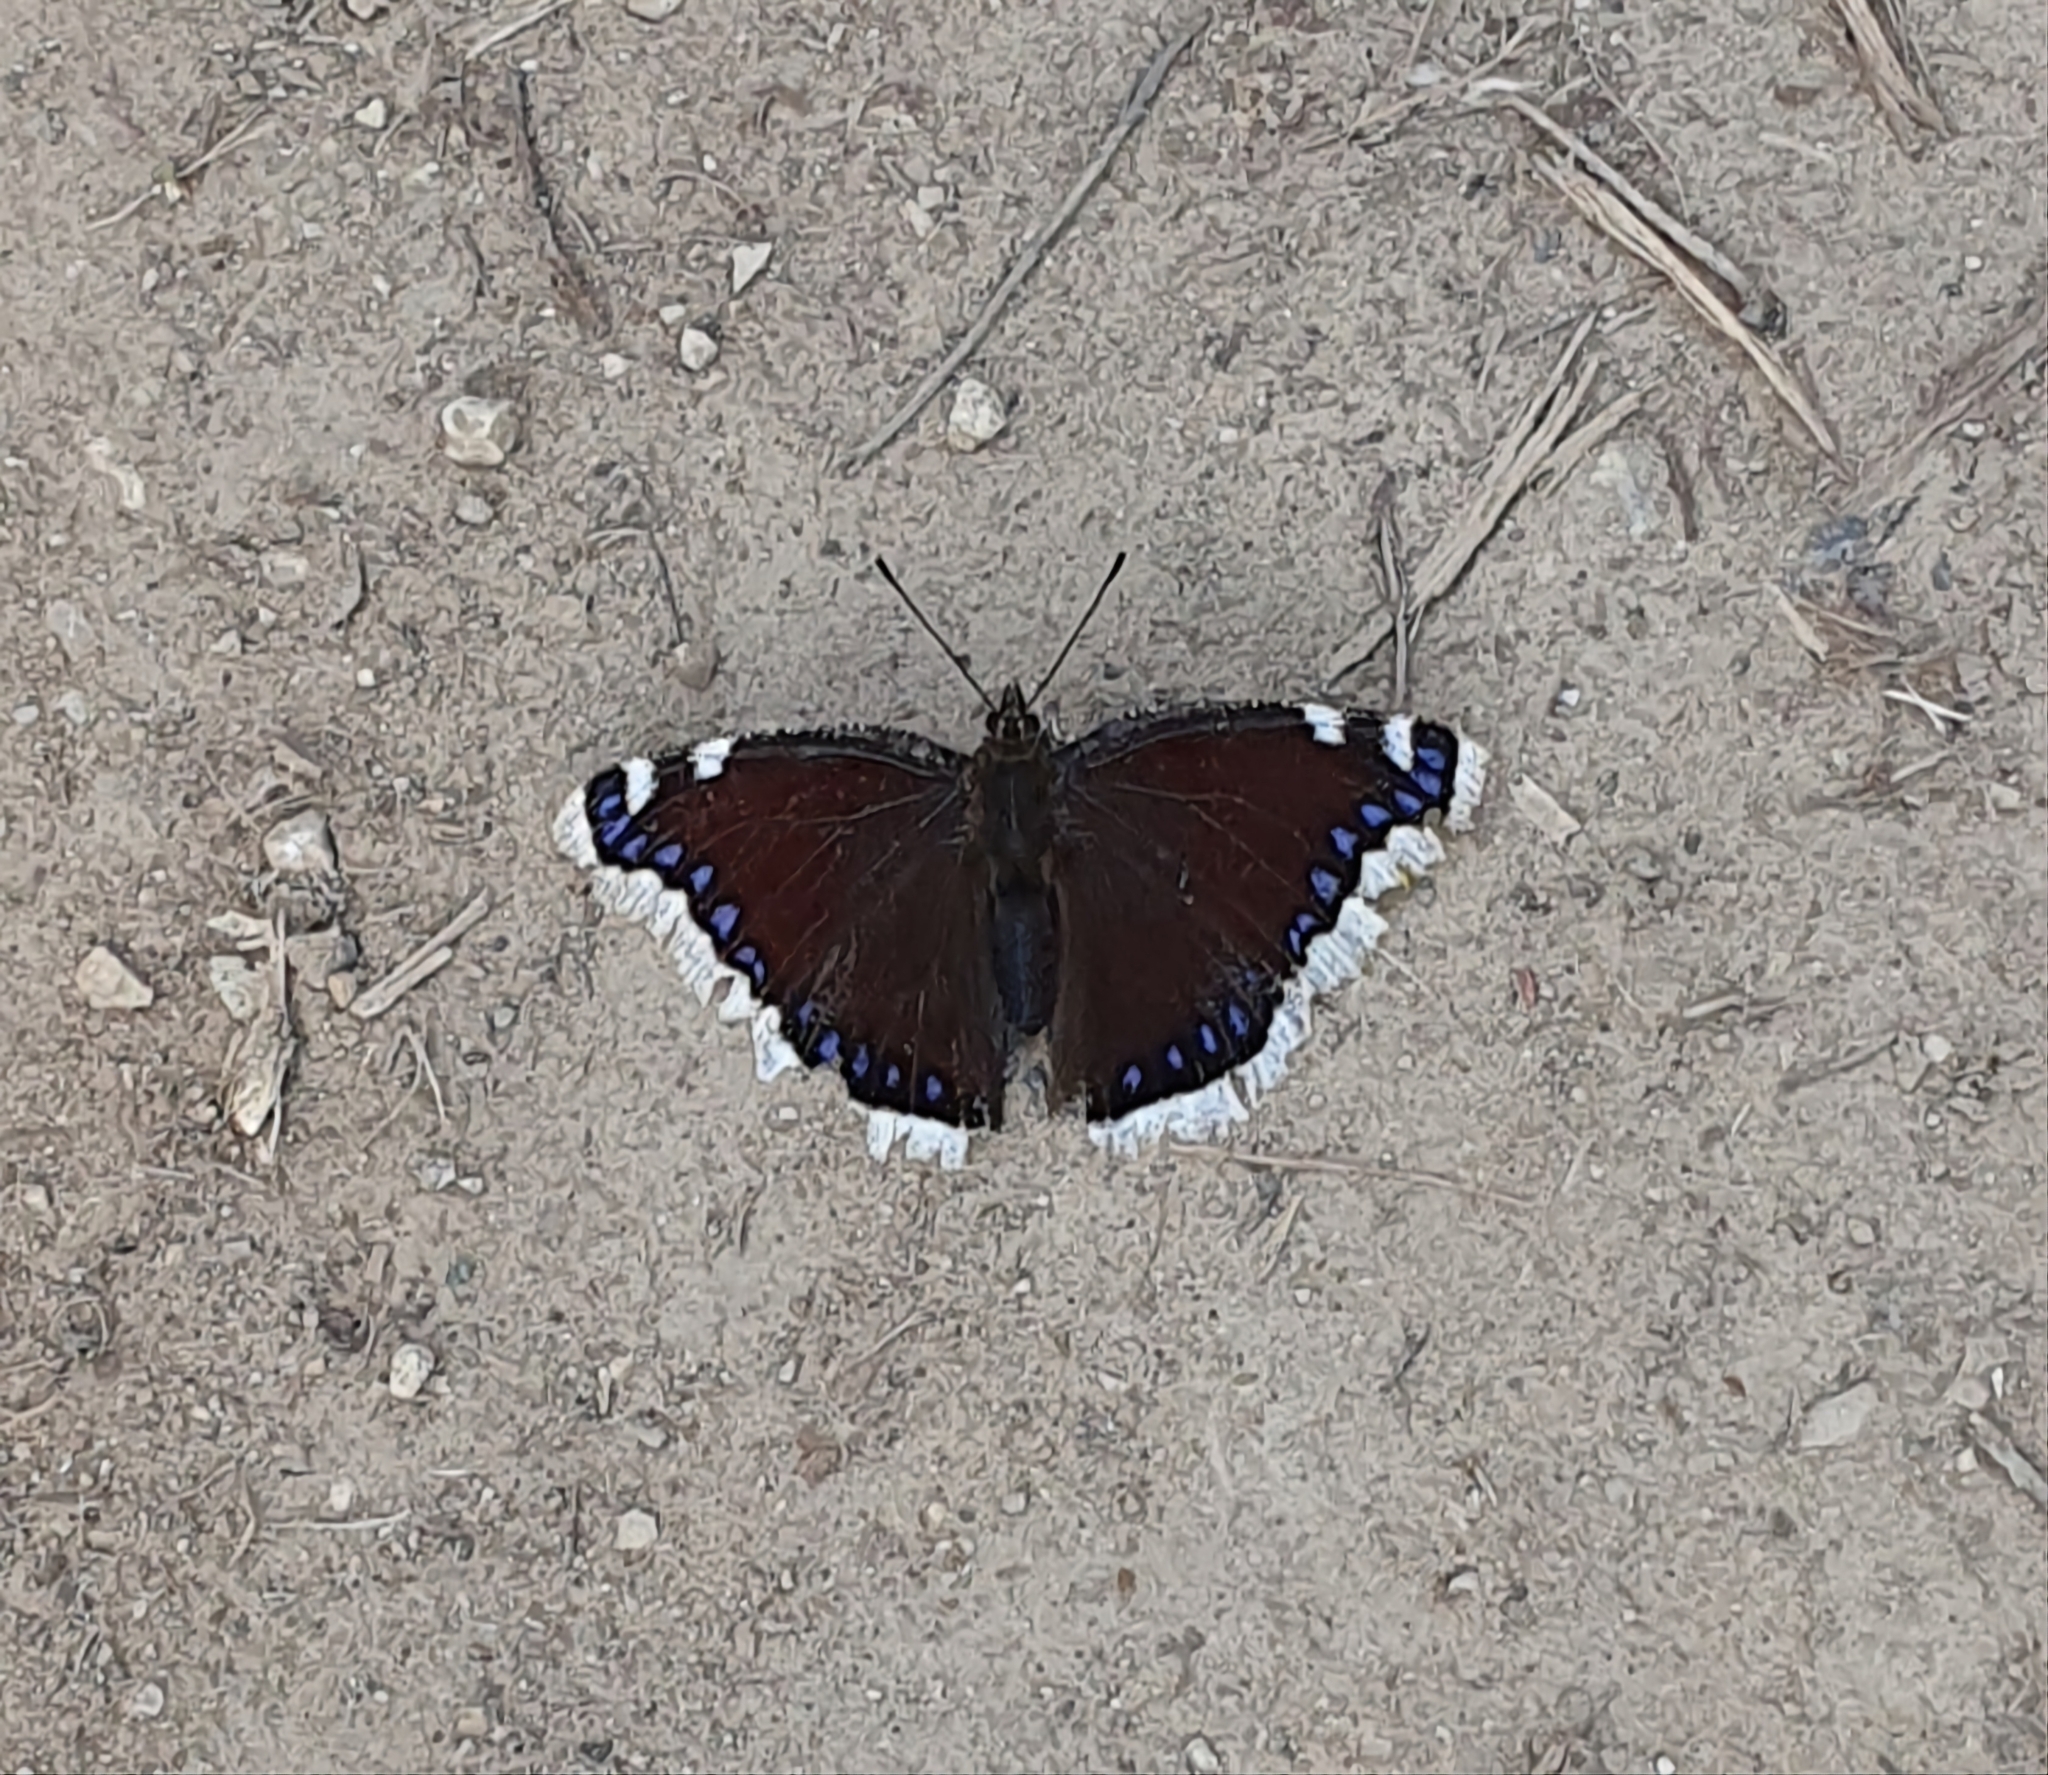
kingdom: Animalia
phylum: Arthropoda
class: Insecta
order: Lepidoptera
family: Nymphalidae
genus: Nymphalis
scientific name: Nymphalis antiopa
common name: Camberwell beauty
